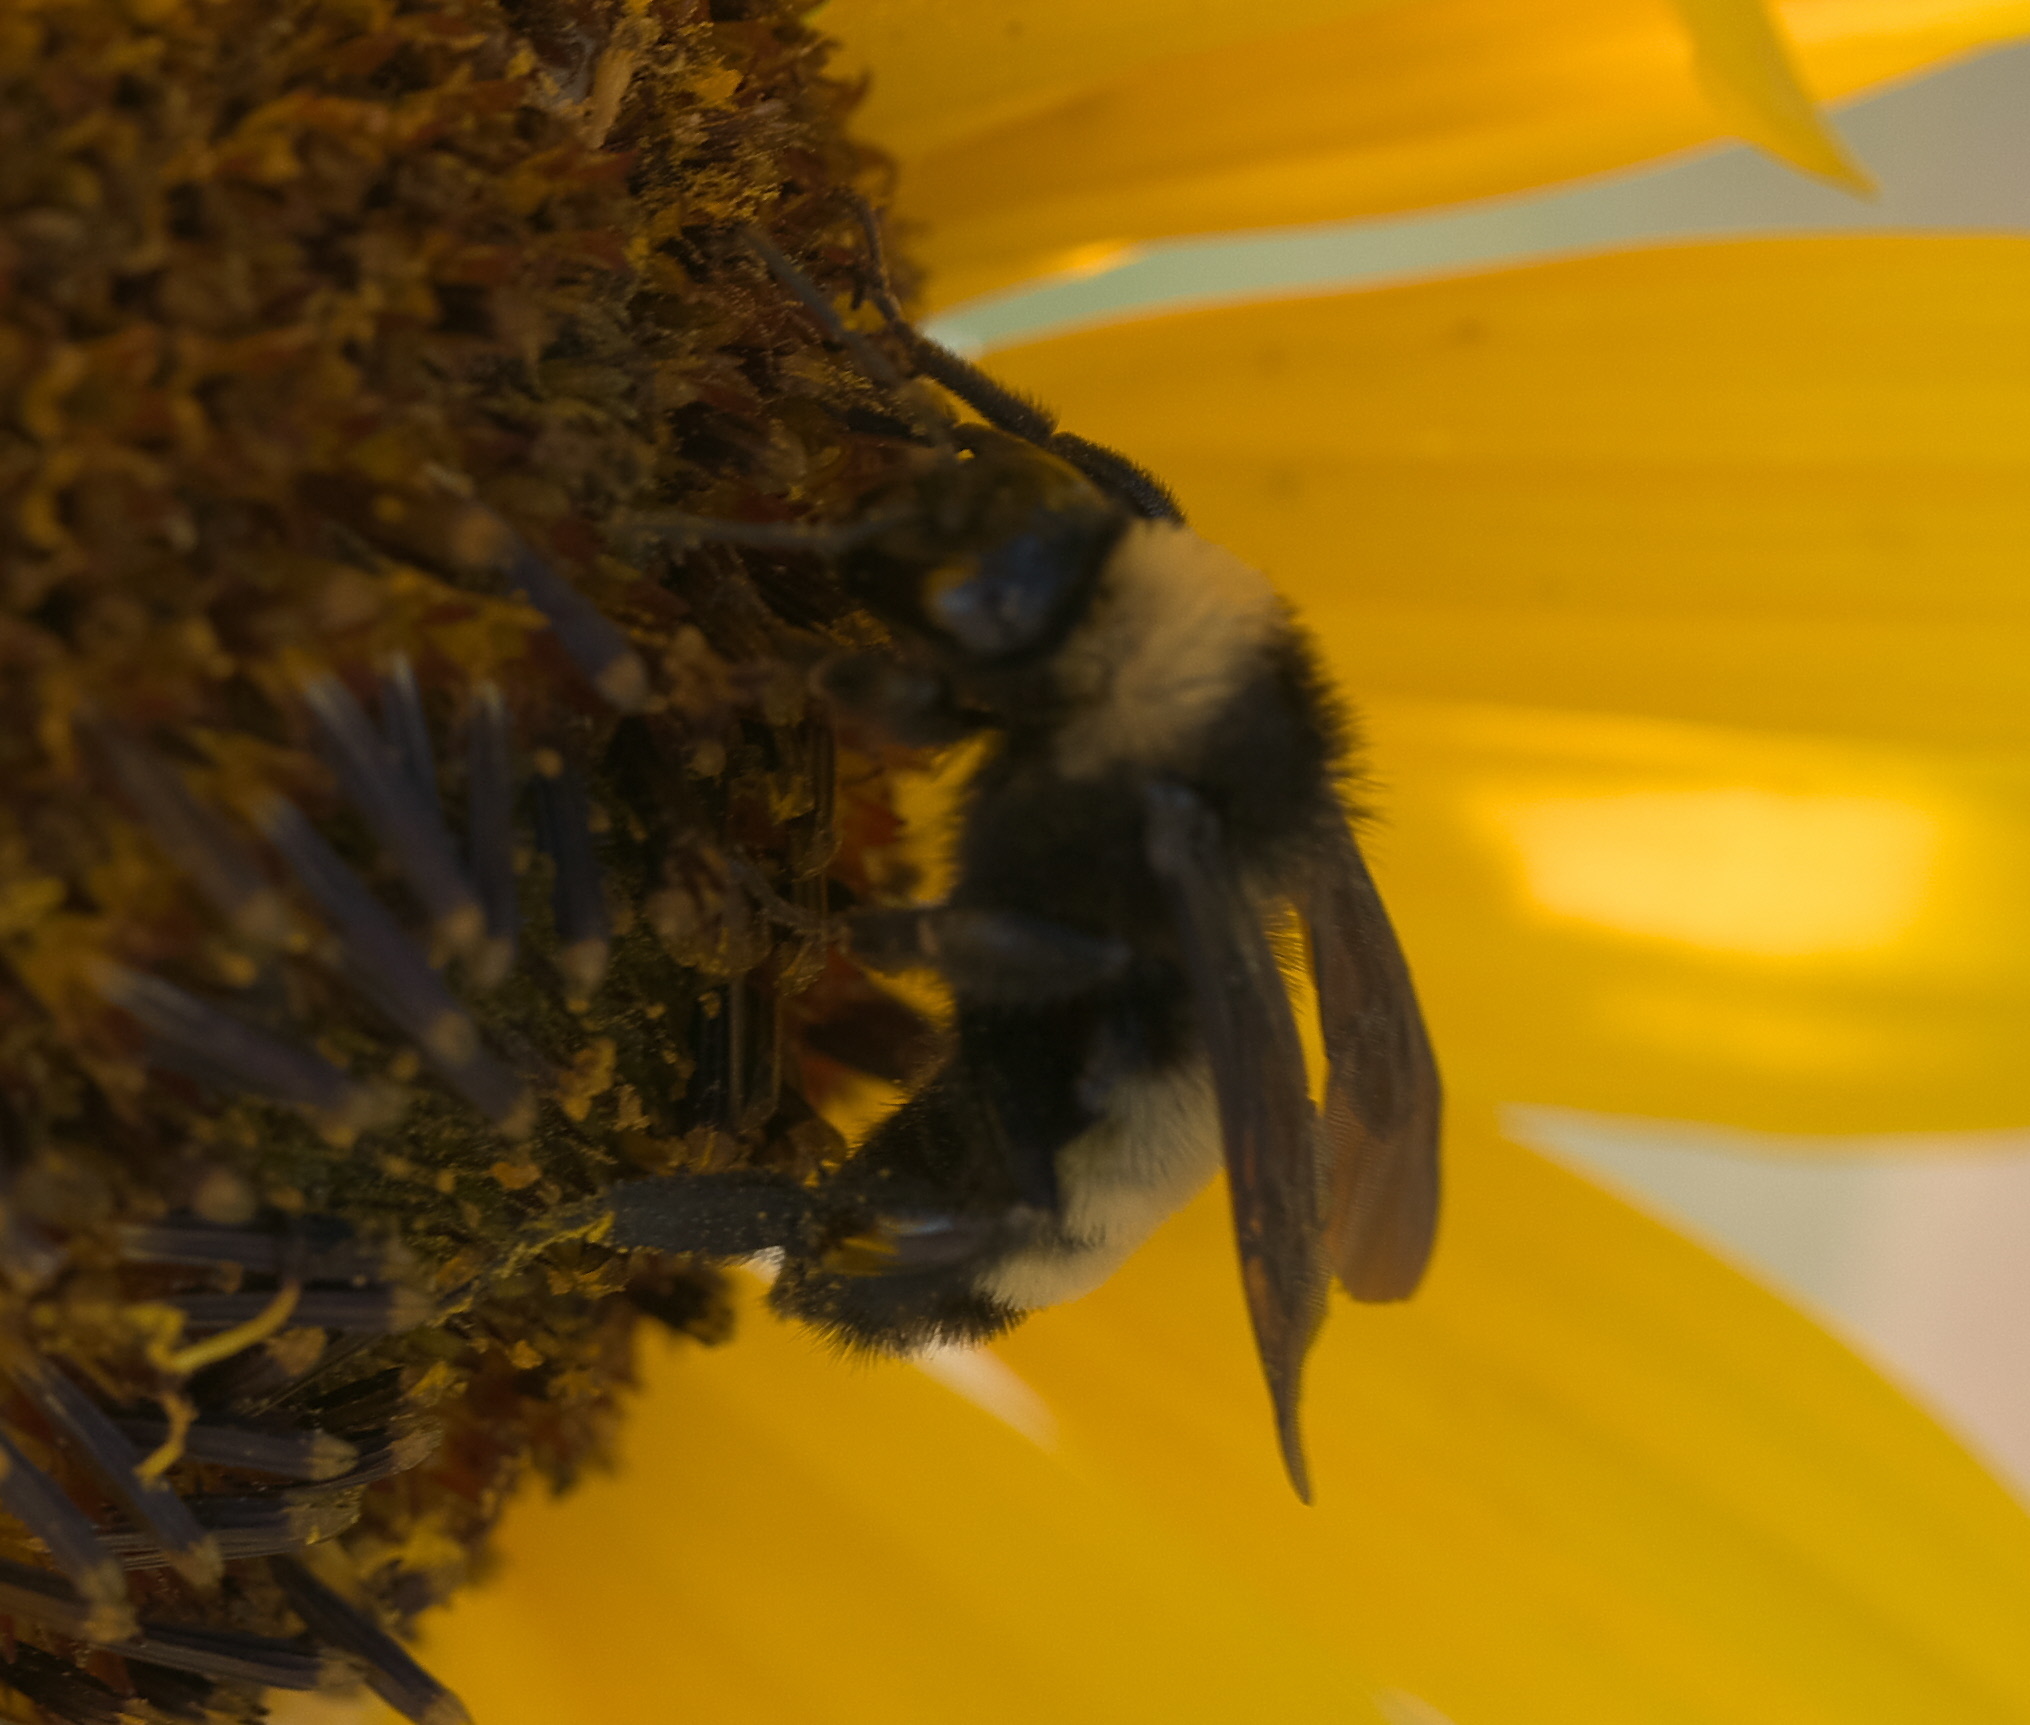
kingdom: Animalia
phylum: Arthropoda
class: Insecta
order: Hymenoptera
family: Apidae
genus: Bombus
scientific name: Bombus pensylvanicus
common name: Bumble bee
